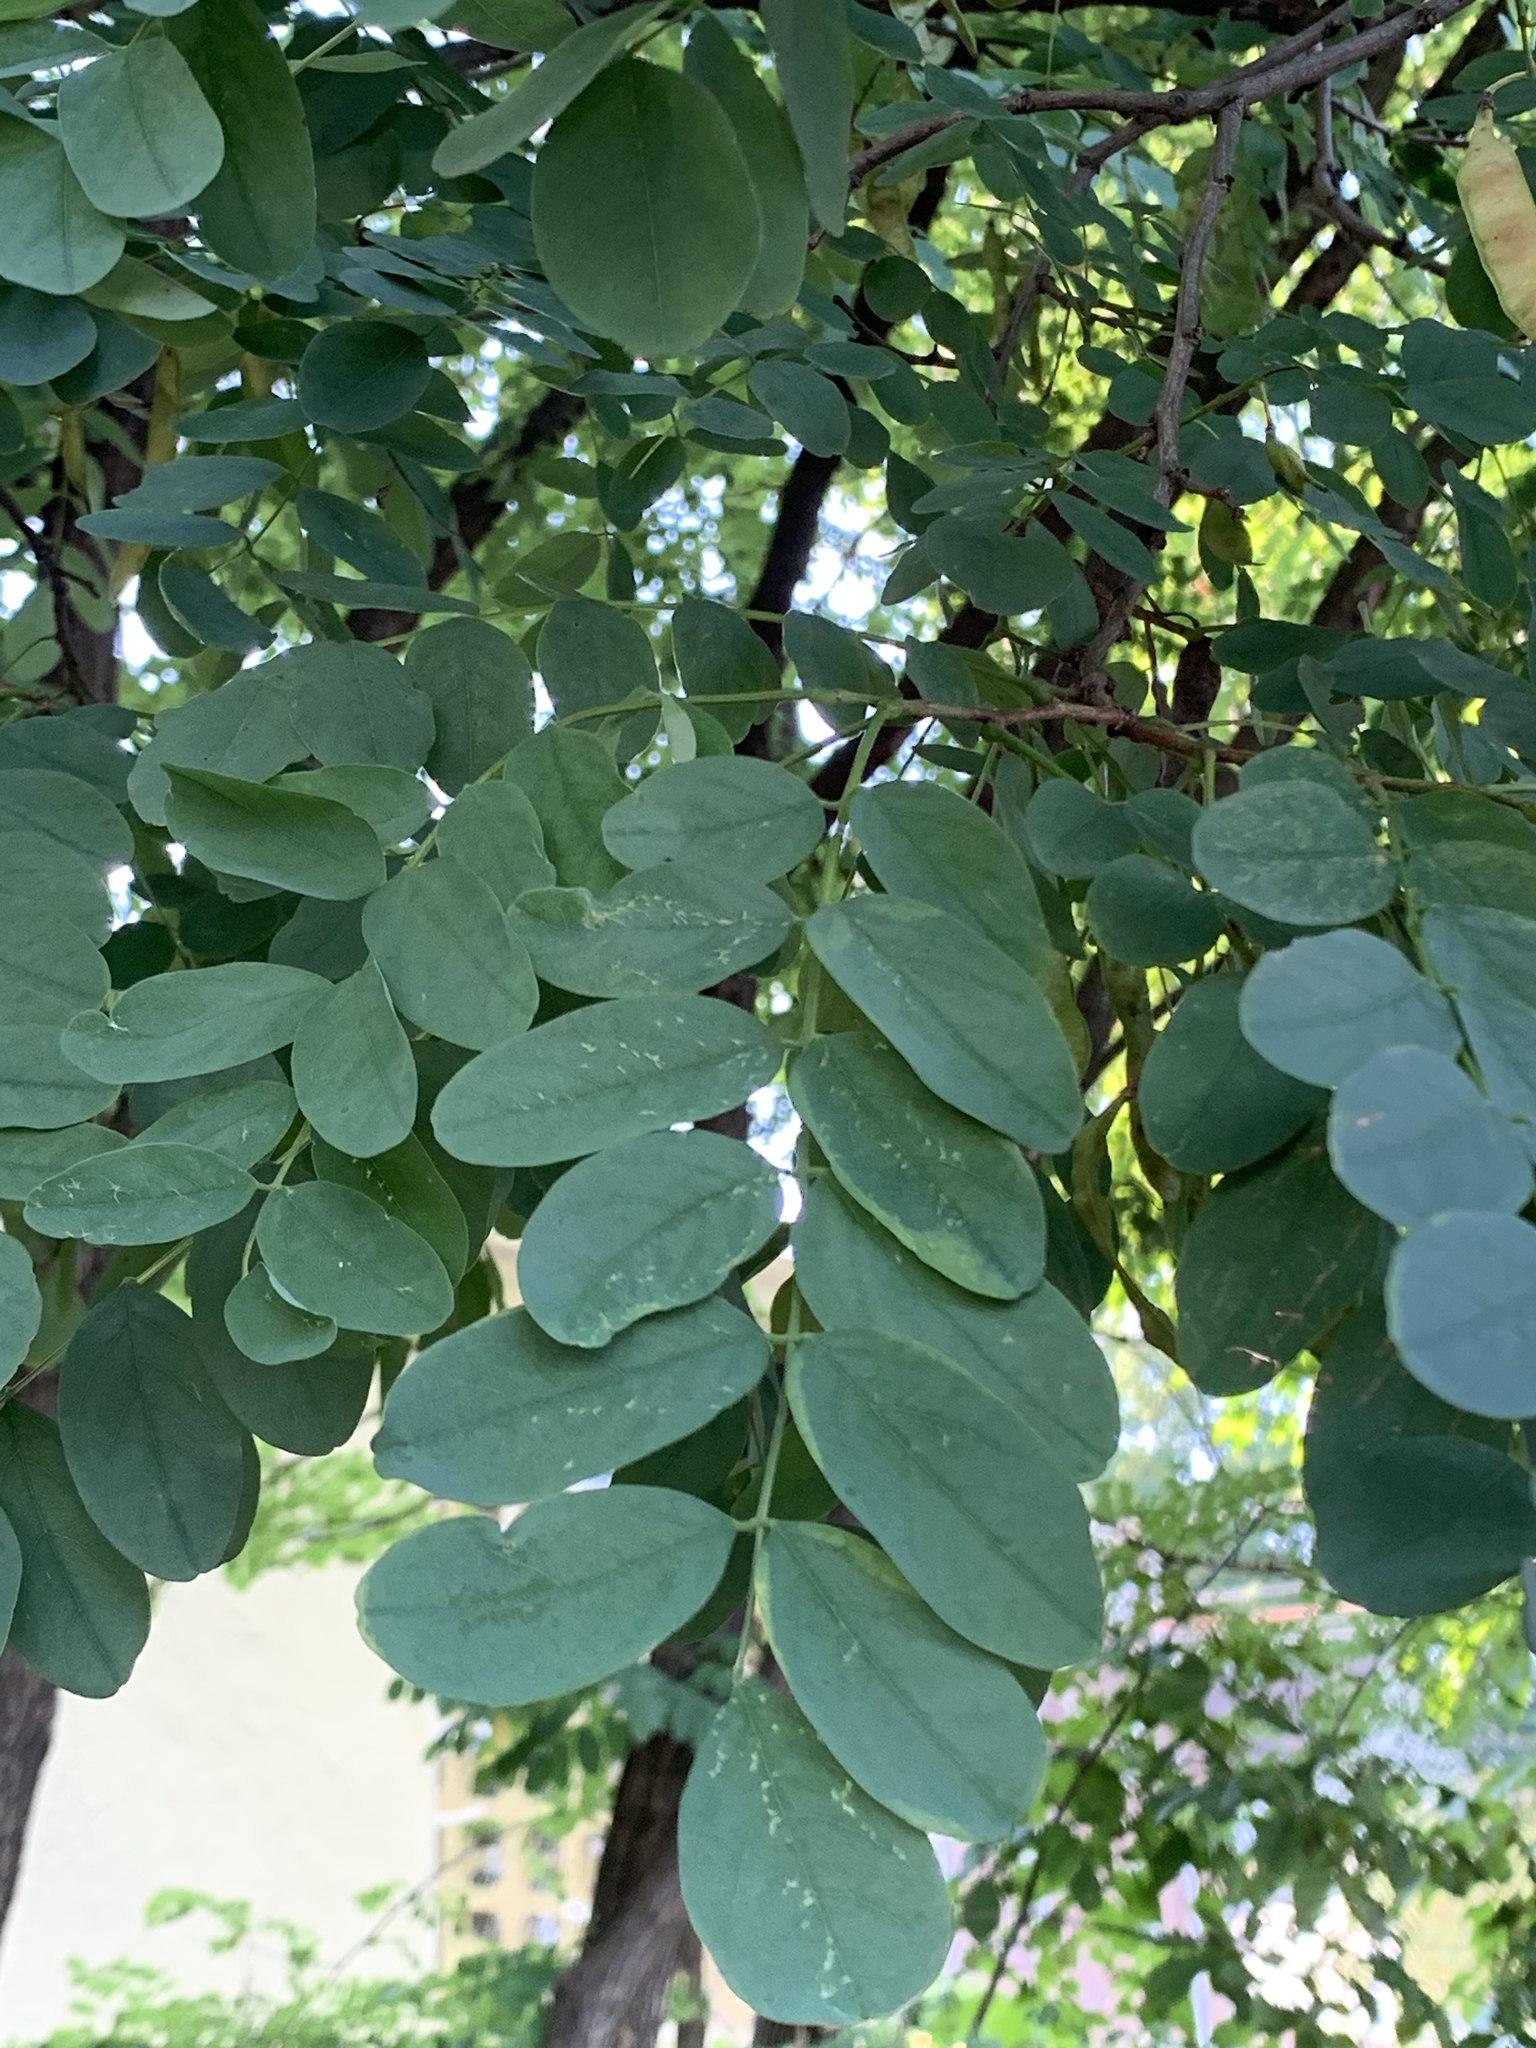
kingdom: Plantae
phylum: Tracheophyta
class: Magnoliopsida
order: Fabales
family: Fabaceae
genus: Robinia
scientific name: Robinia pseudoacacia
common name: Black locust
